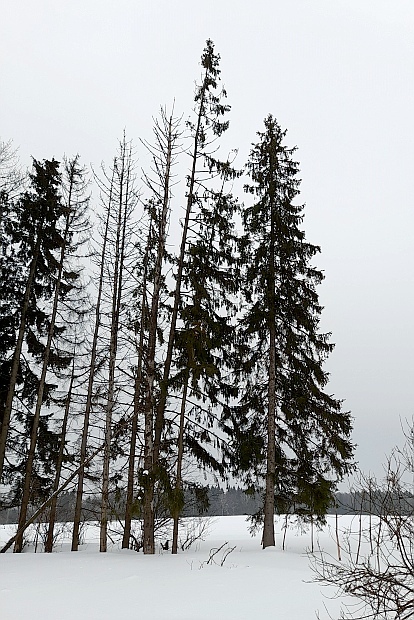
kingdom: Plantae
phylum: Tracheophyta
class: Pinopsida
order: Pinales
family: Pinaceae
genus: Picea
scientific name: Picea abies
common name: Norway spruce
